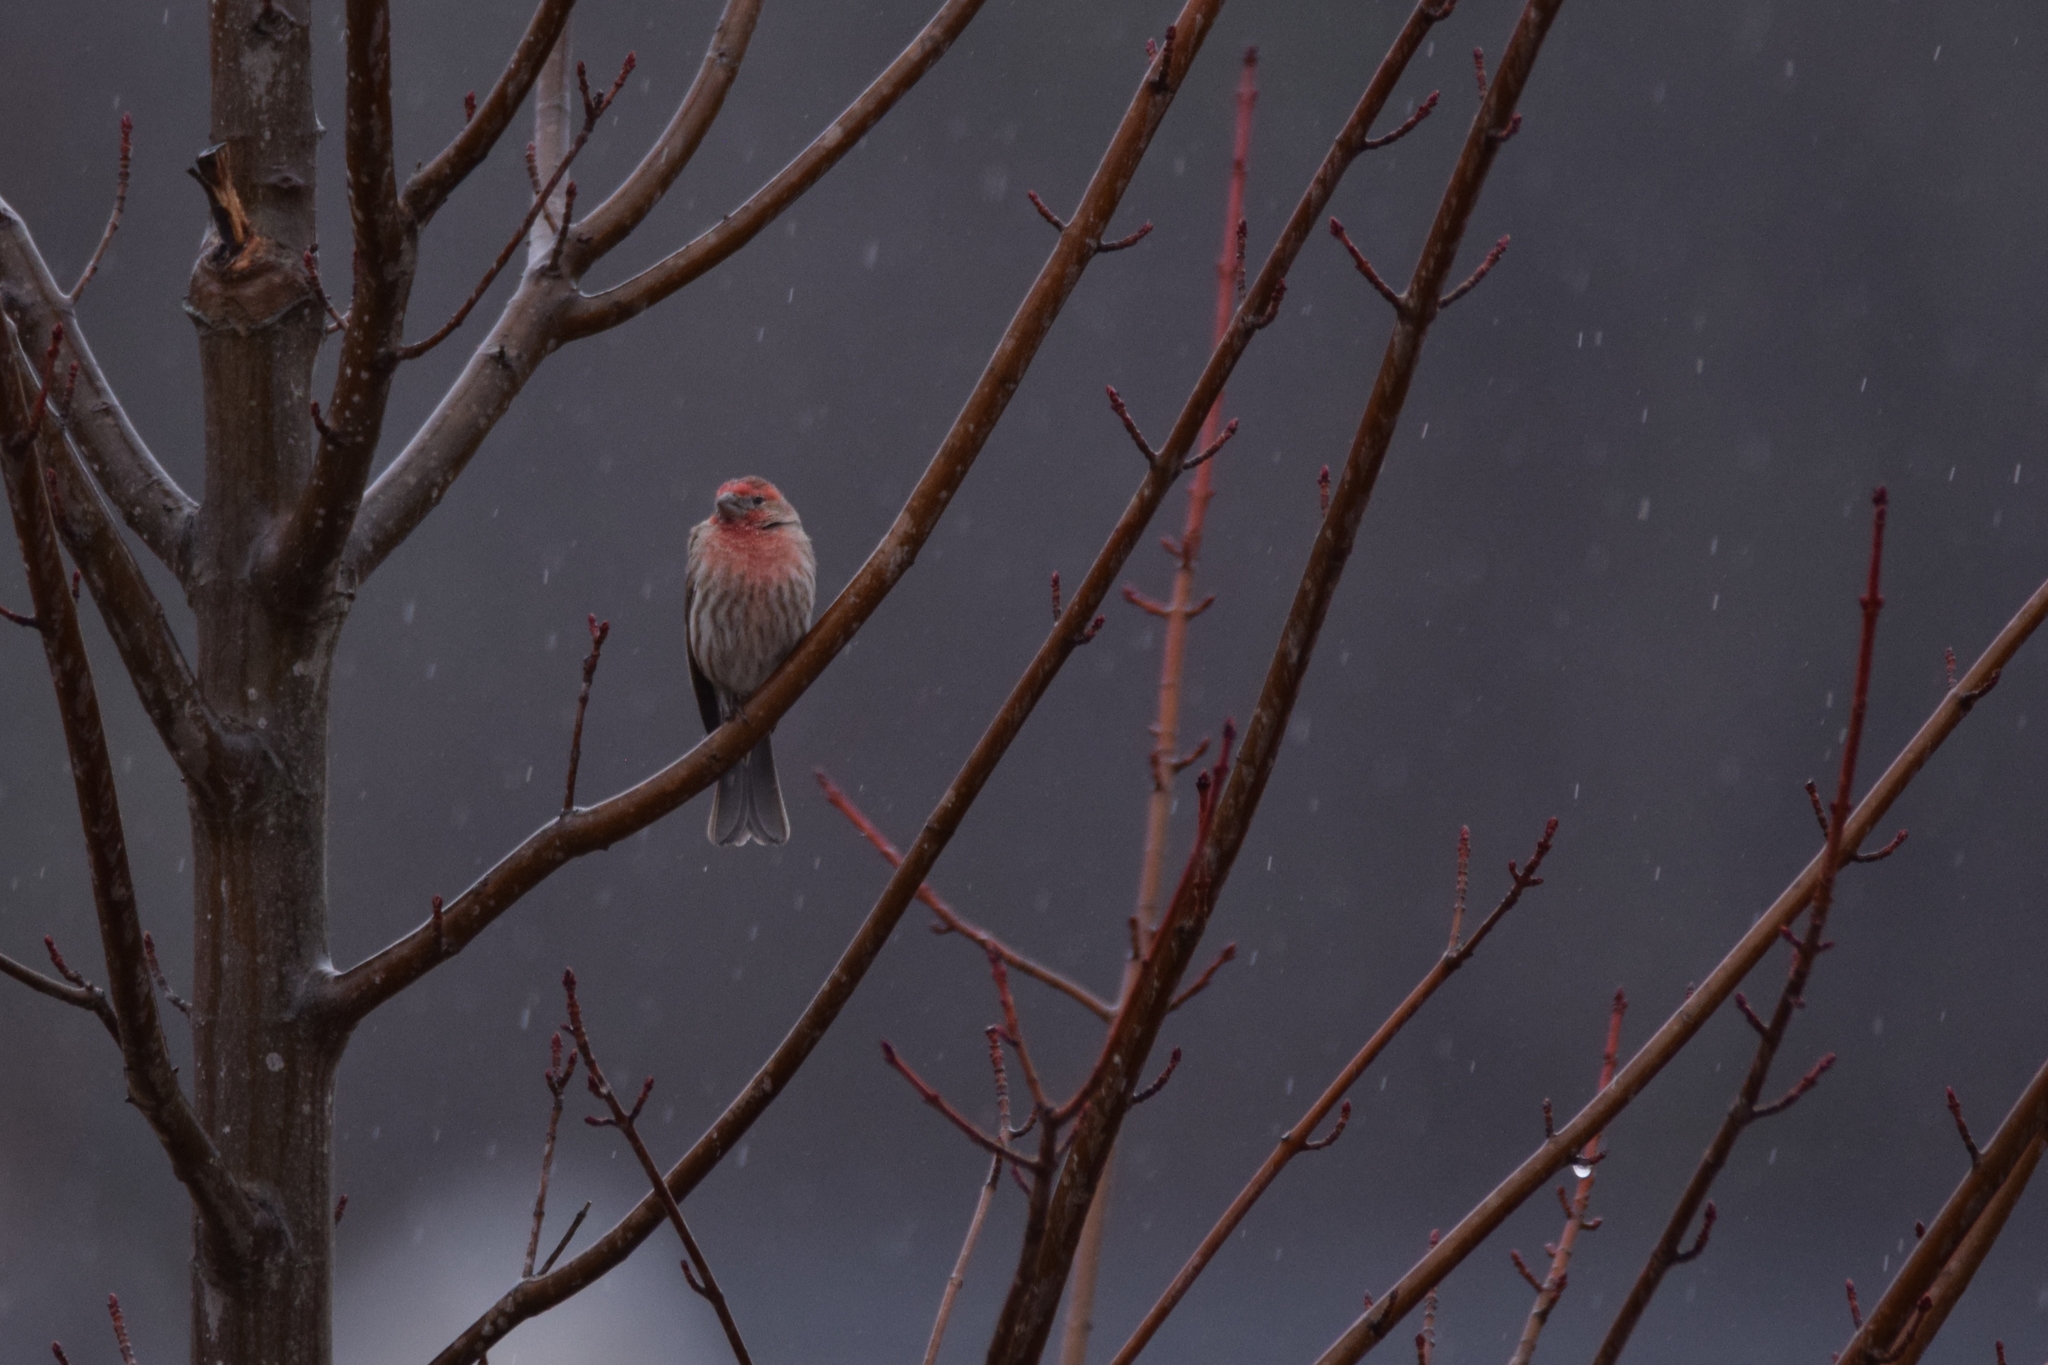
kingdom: Animalia
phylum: Chordata
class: Aves
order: Passeriformes
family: Fringillidae
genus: Haemorhous
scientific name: Haemorhous mexicanus
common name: House finch
